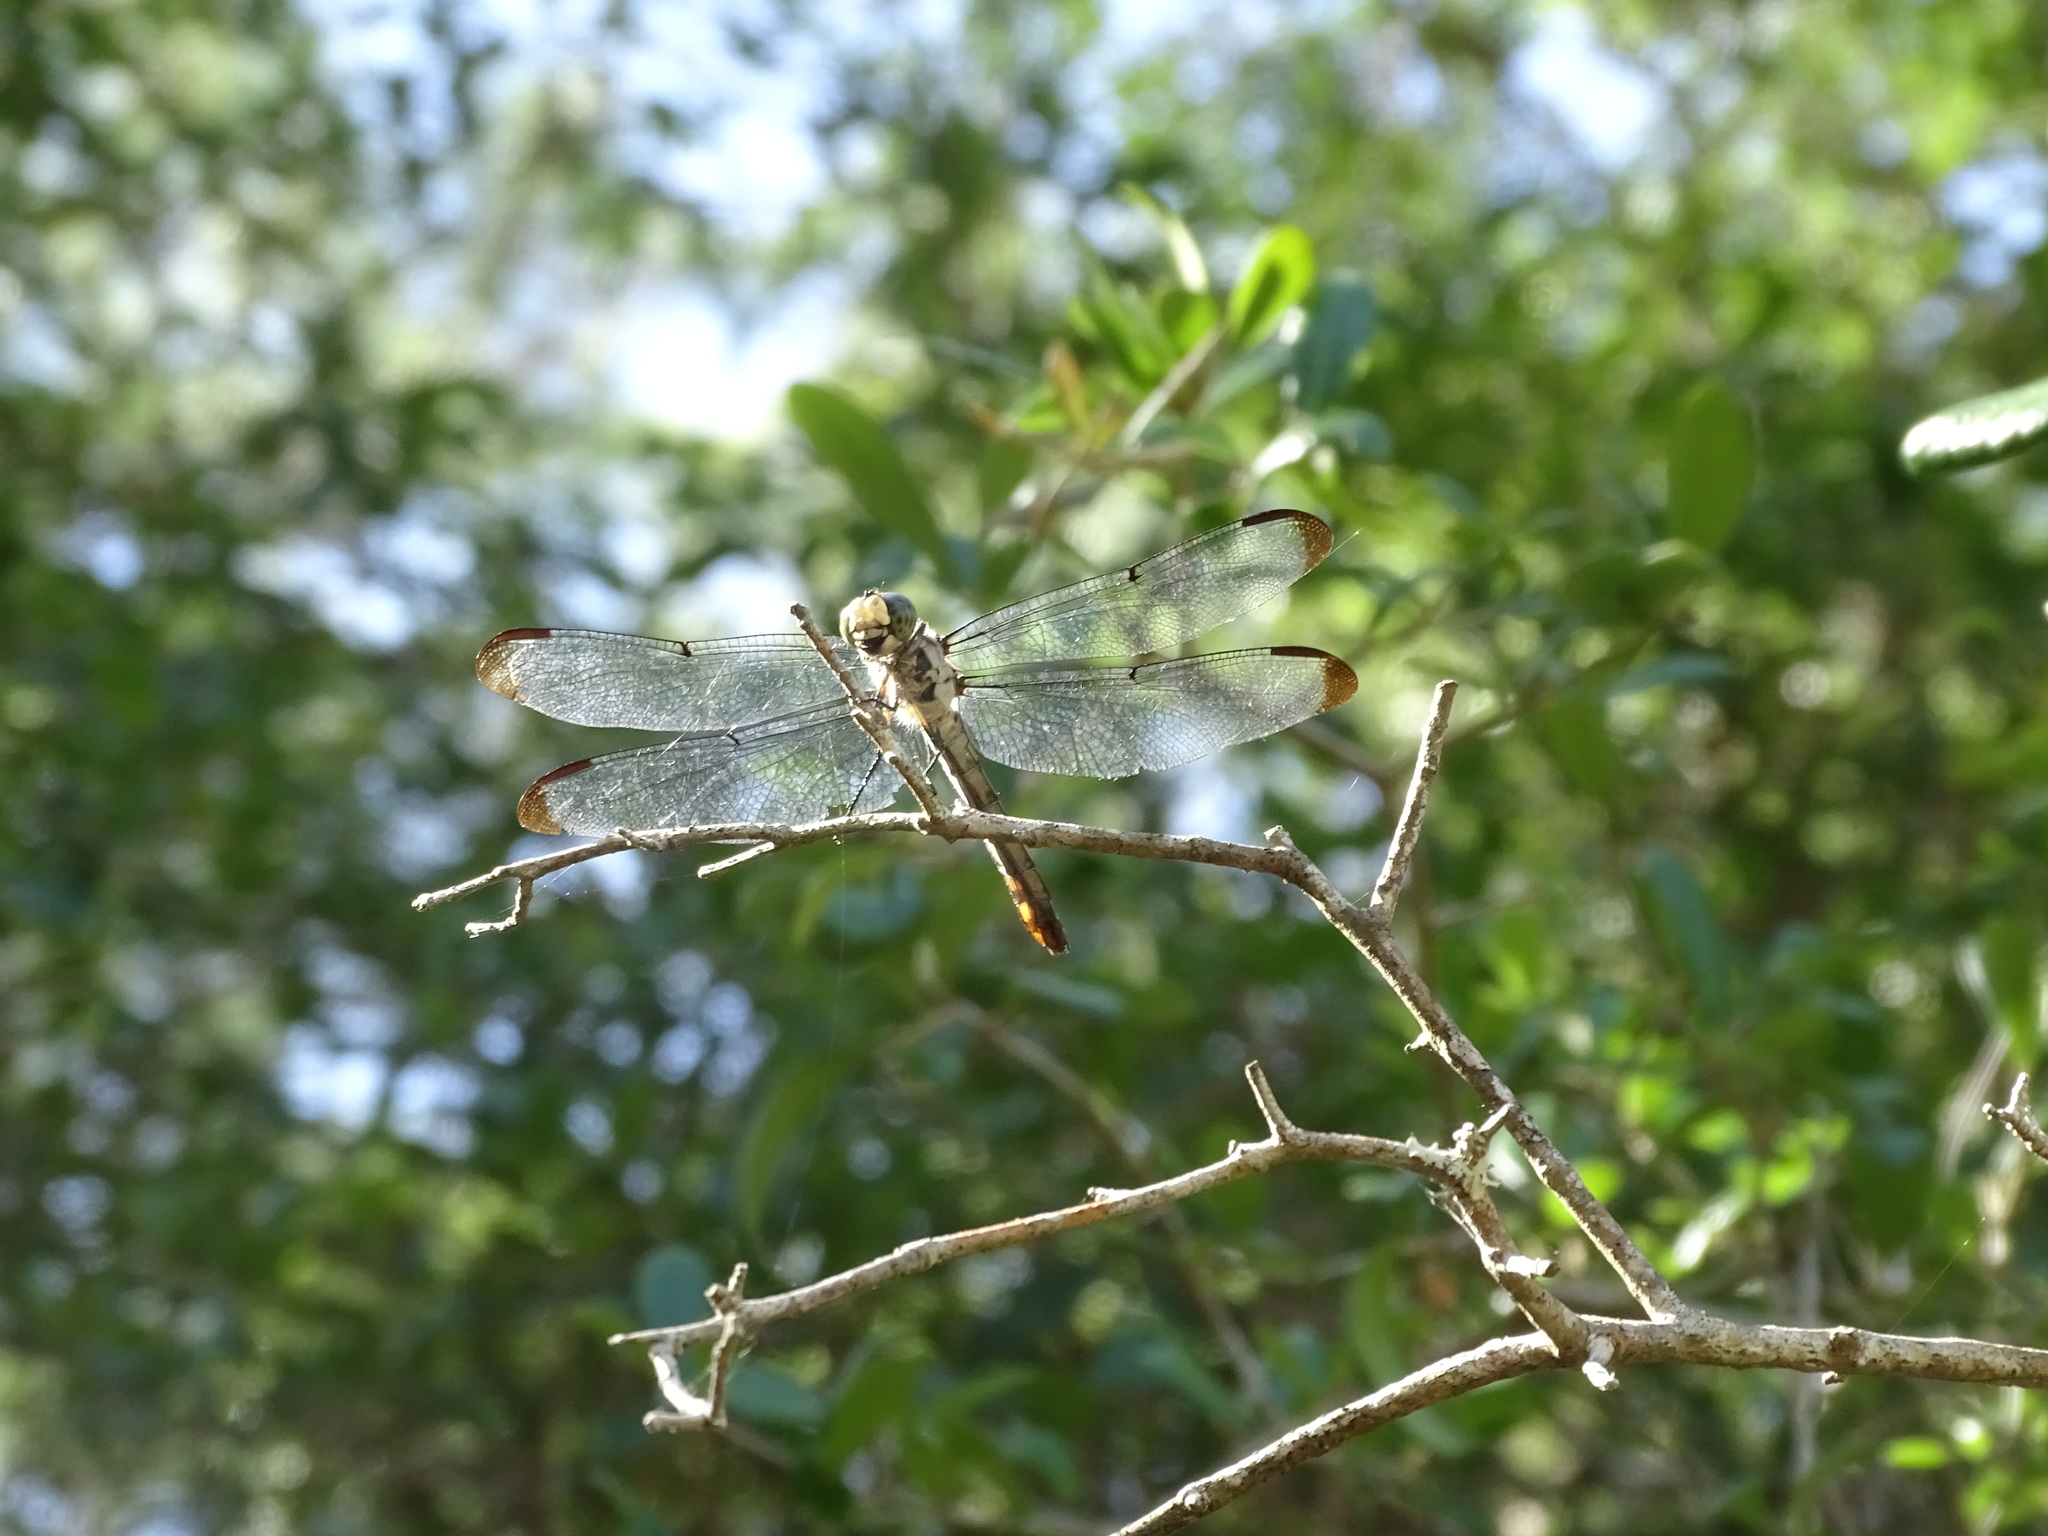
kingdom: Animalia
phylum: Arthropoda
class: Insecta
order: Odonata
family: Libellulidae
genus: Libellula
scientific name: Libellula vibrans
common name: Great blue skimmer
